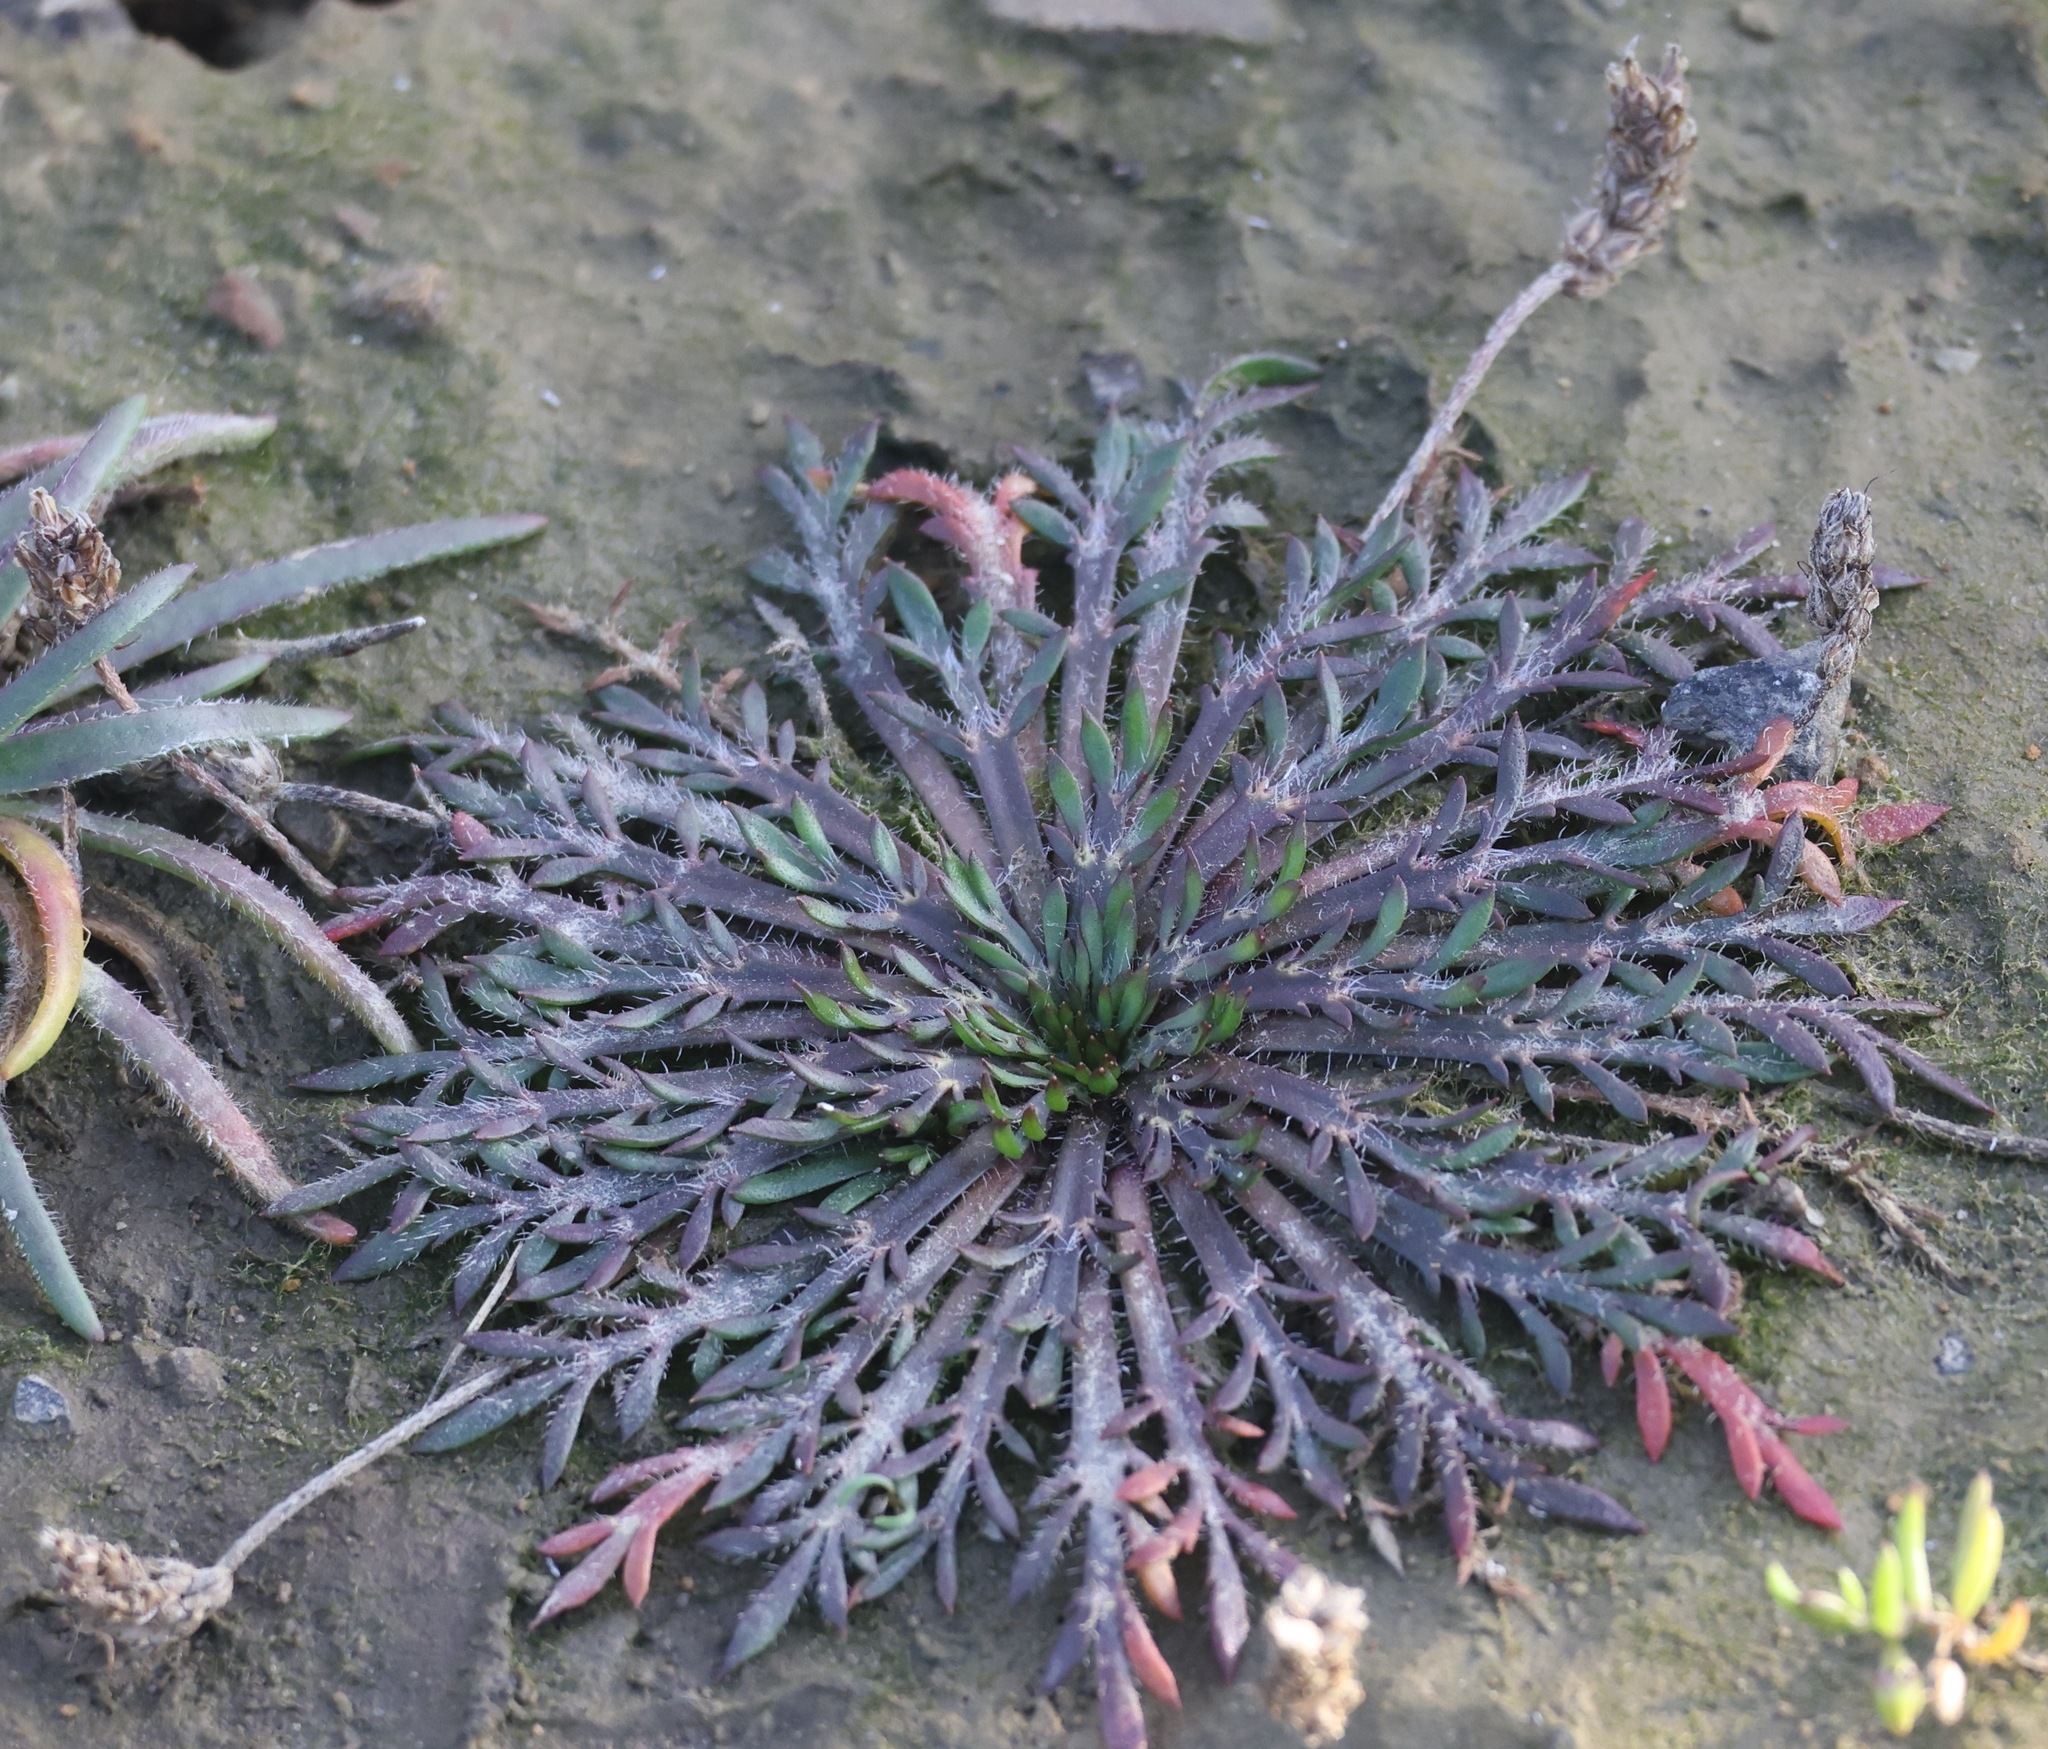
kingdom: Plantae
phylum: Tracheophyta
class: Magnoliopsida
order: Lamiales
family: Plantaginaceae
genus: Plantago
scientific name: Plantago coronopus
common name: Buck's-horn plantain
